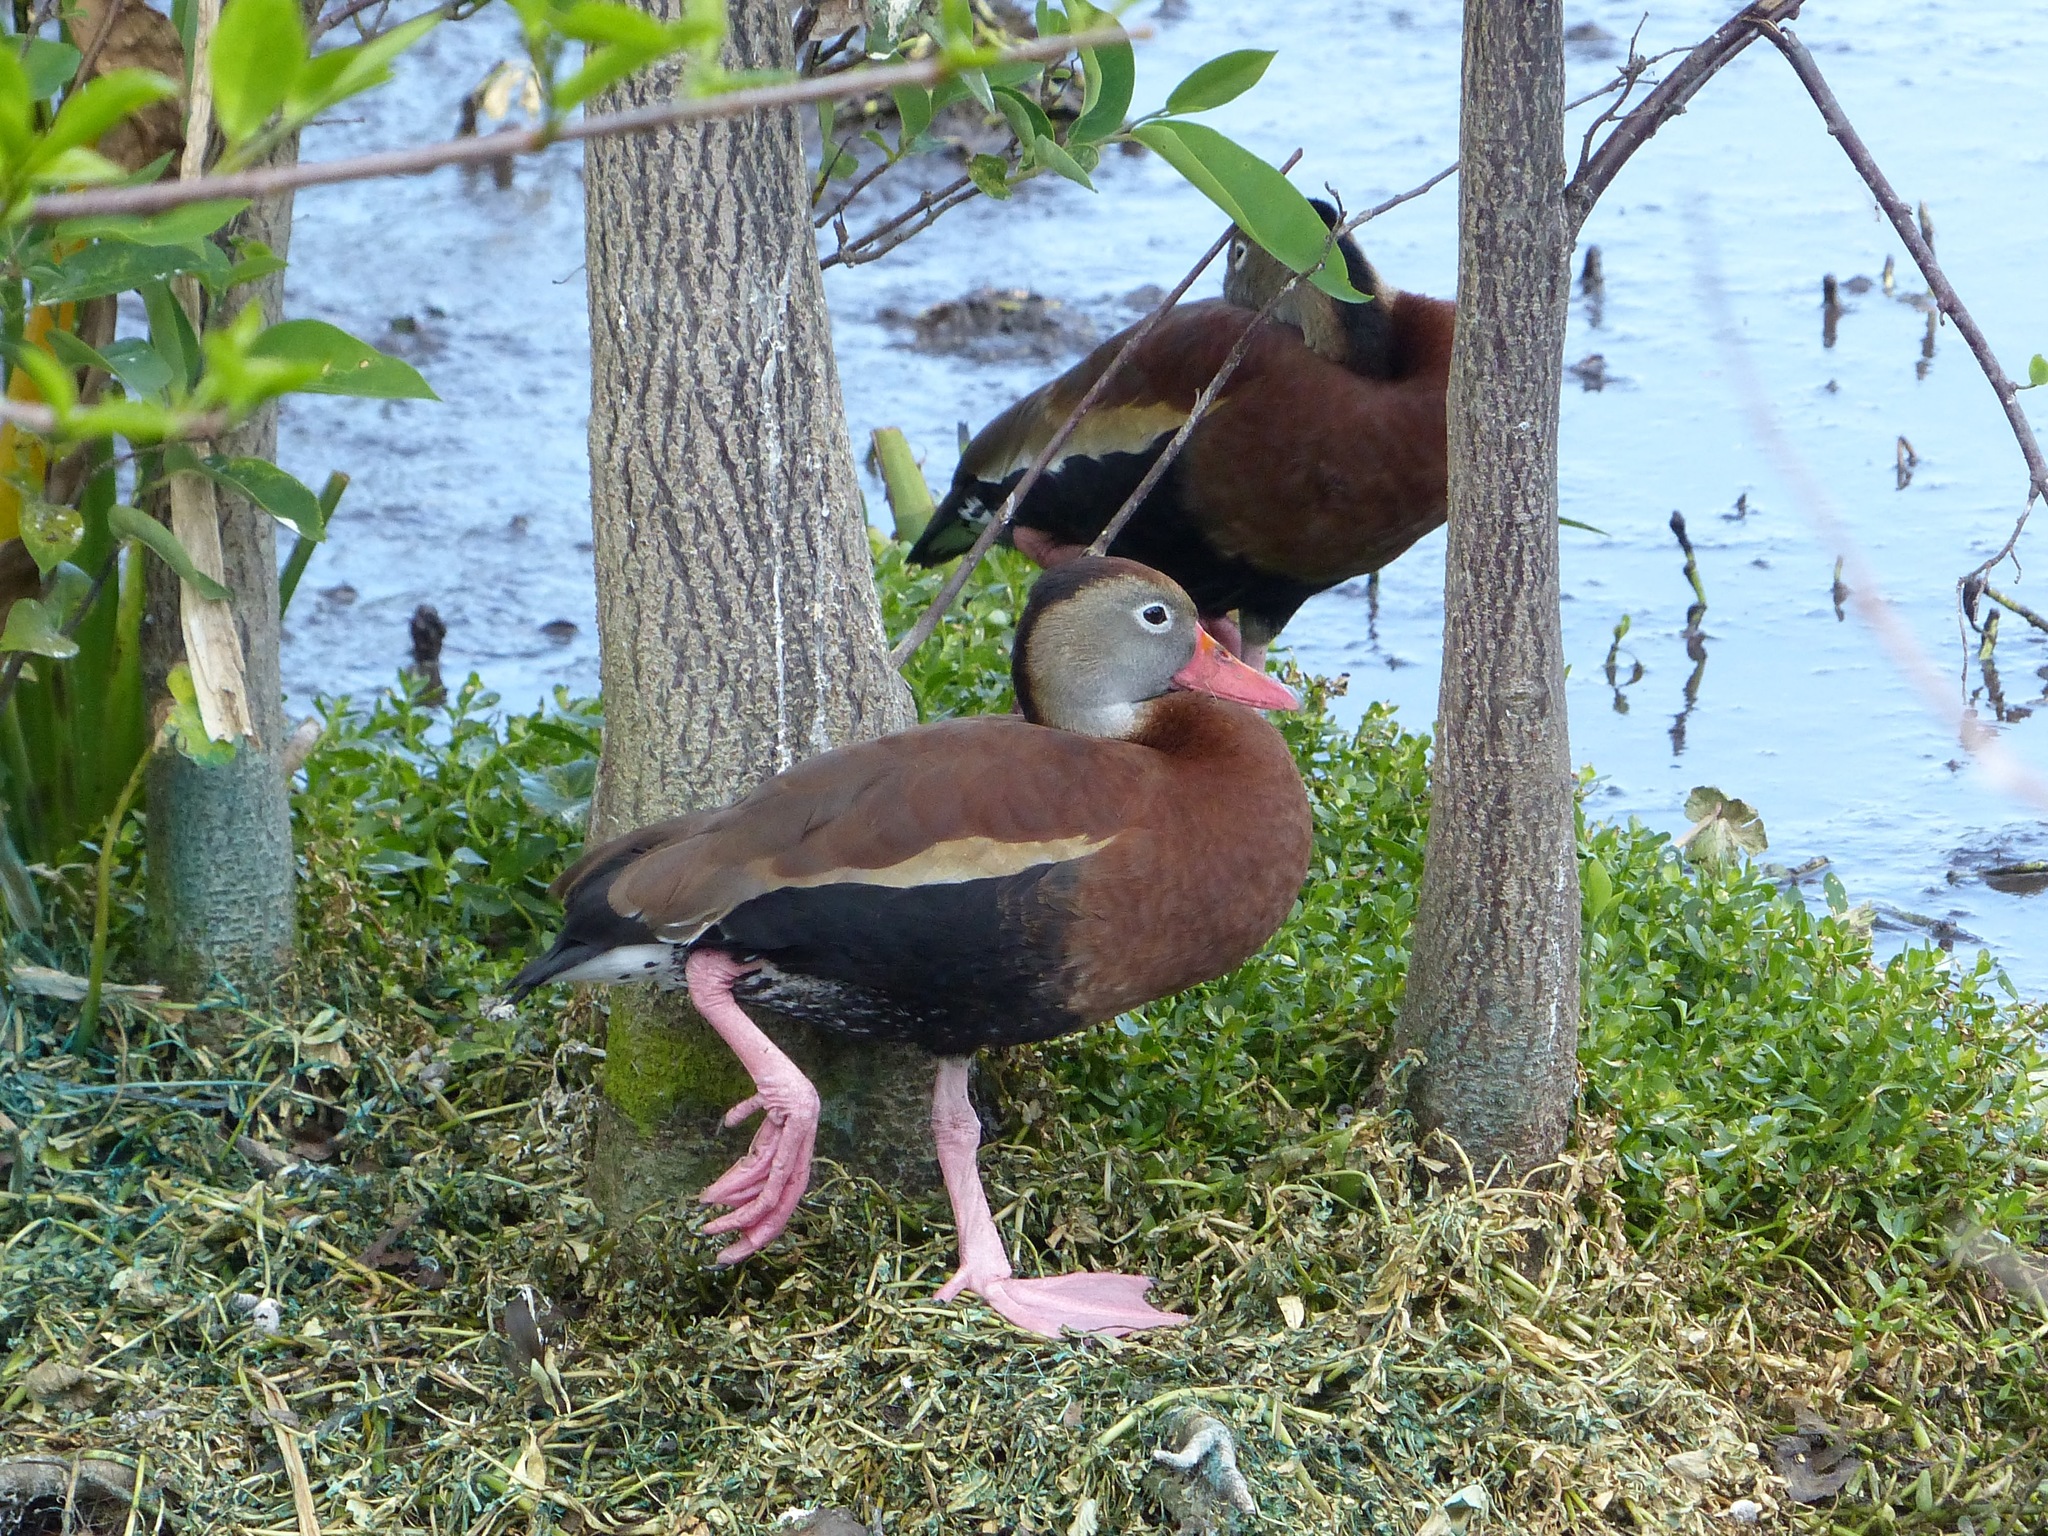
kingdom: Animalia
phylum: Chordata
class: Aves
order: Anseriformes
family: Anatidae
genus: Dendrocygna
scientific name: Dendrocygna autumnalis
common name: Black-bellied whistling duck
